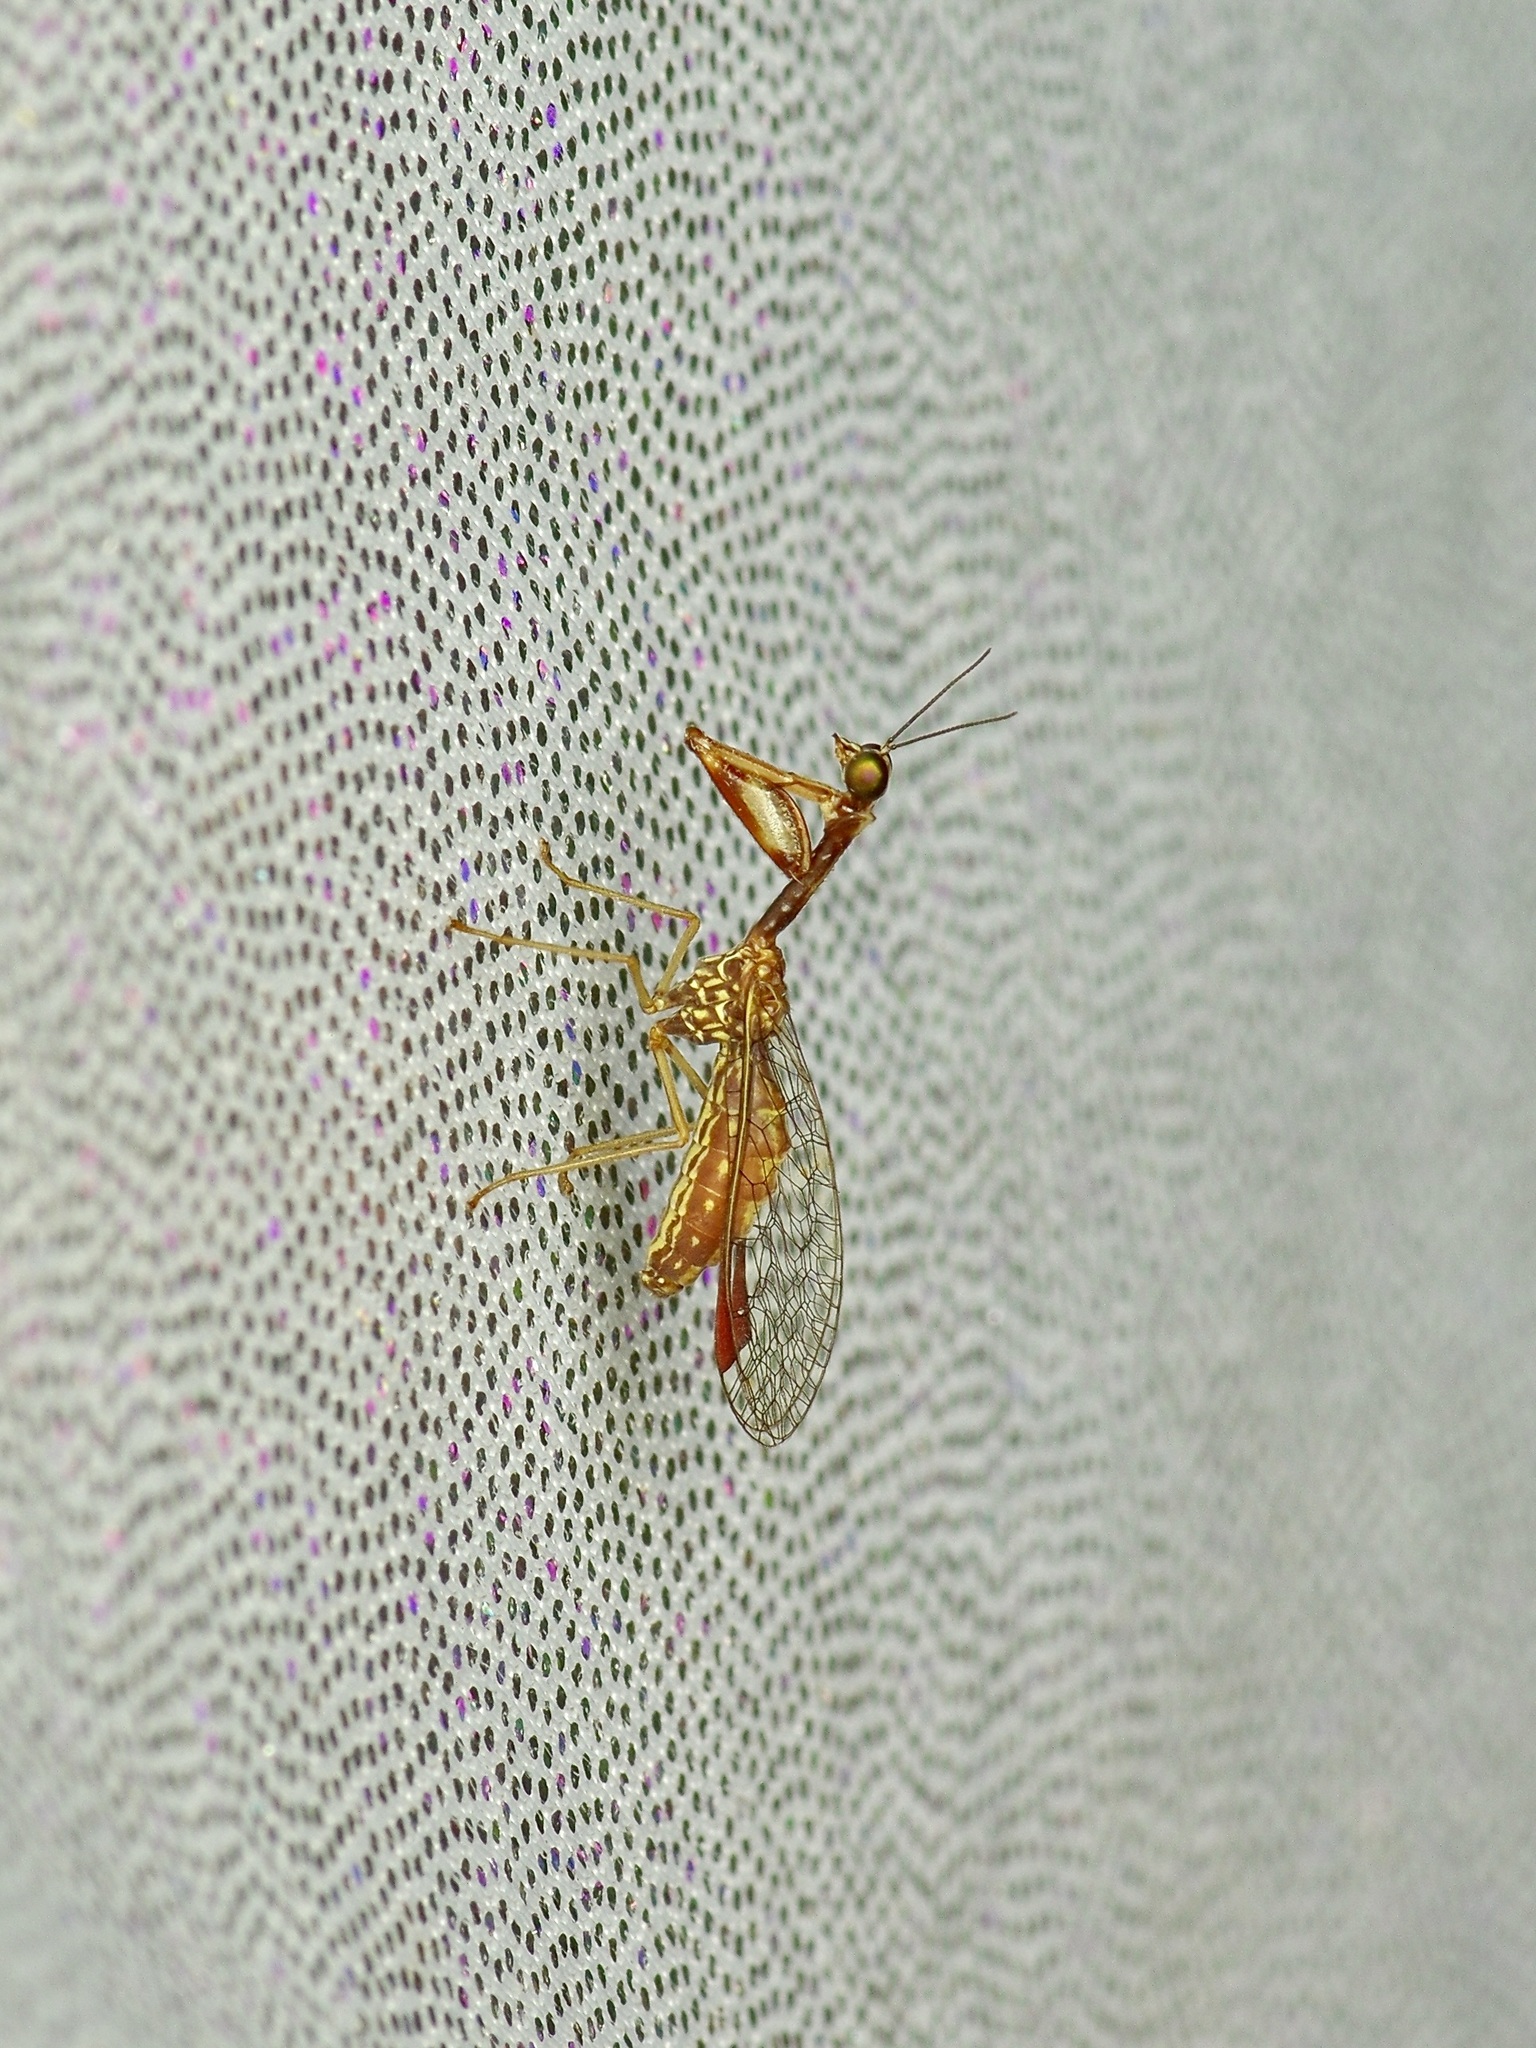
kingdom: Animalia
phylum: Arthropoda
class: Insecta
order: Neuroptera
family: Mantispidae
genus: Leptomantispa
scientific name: Leptomantispa pulchella
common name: Stevens's mantidfly
